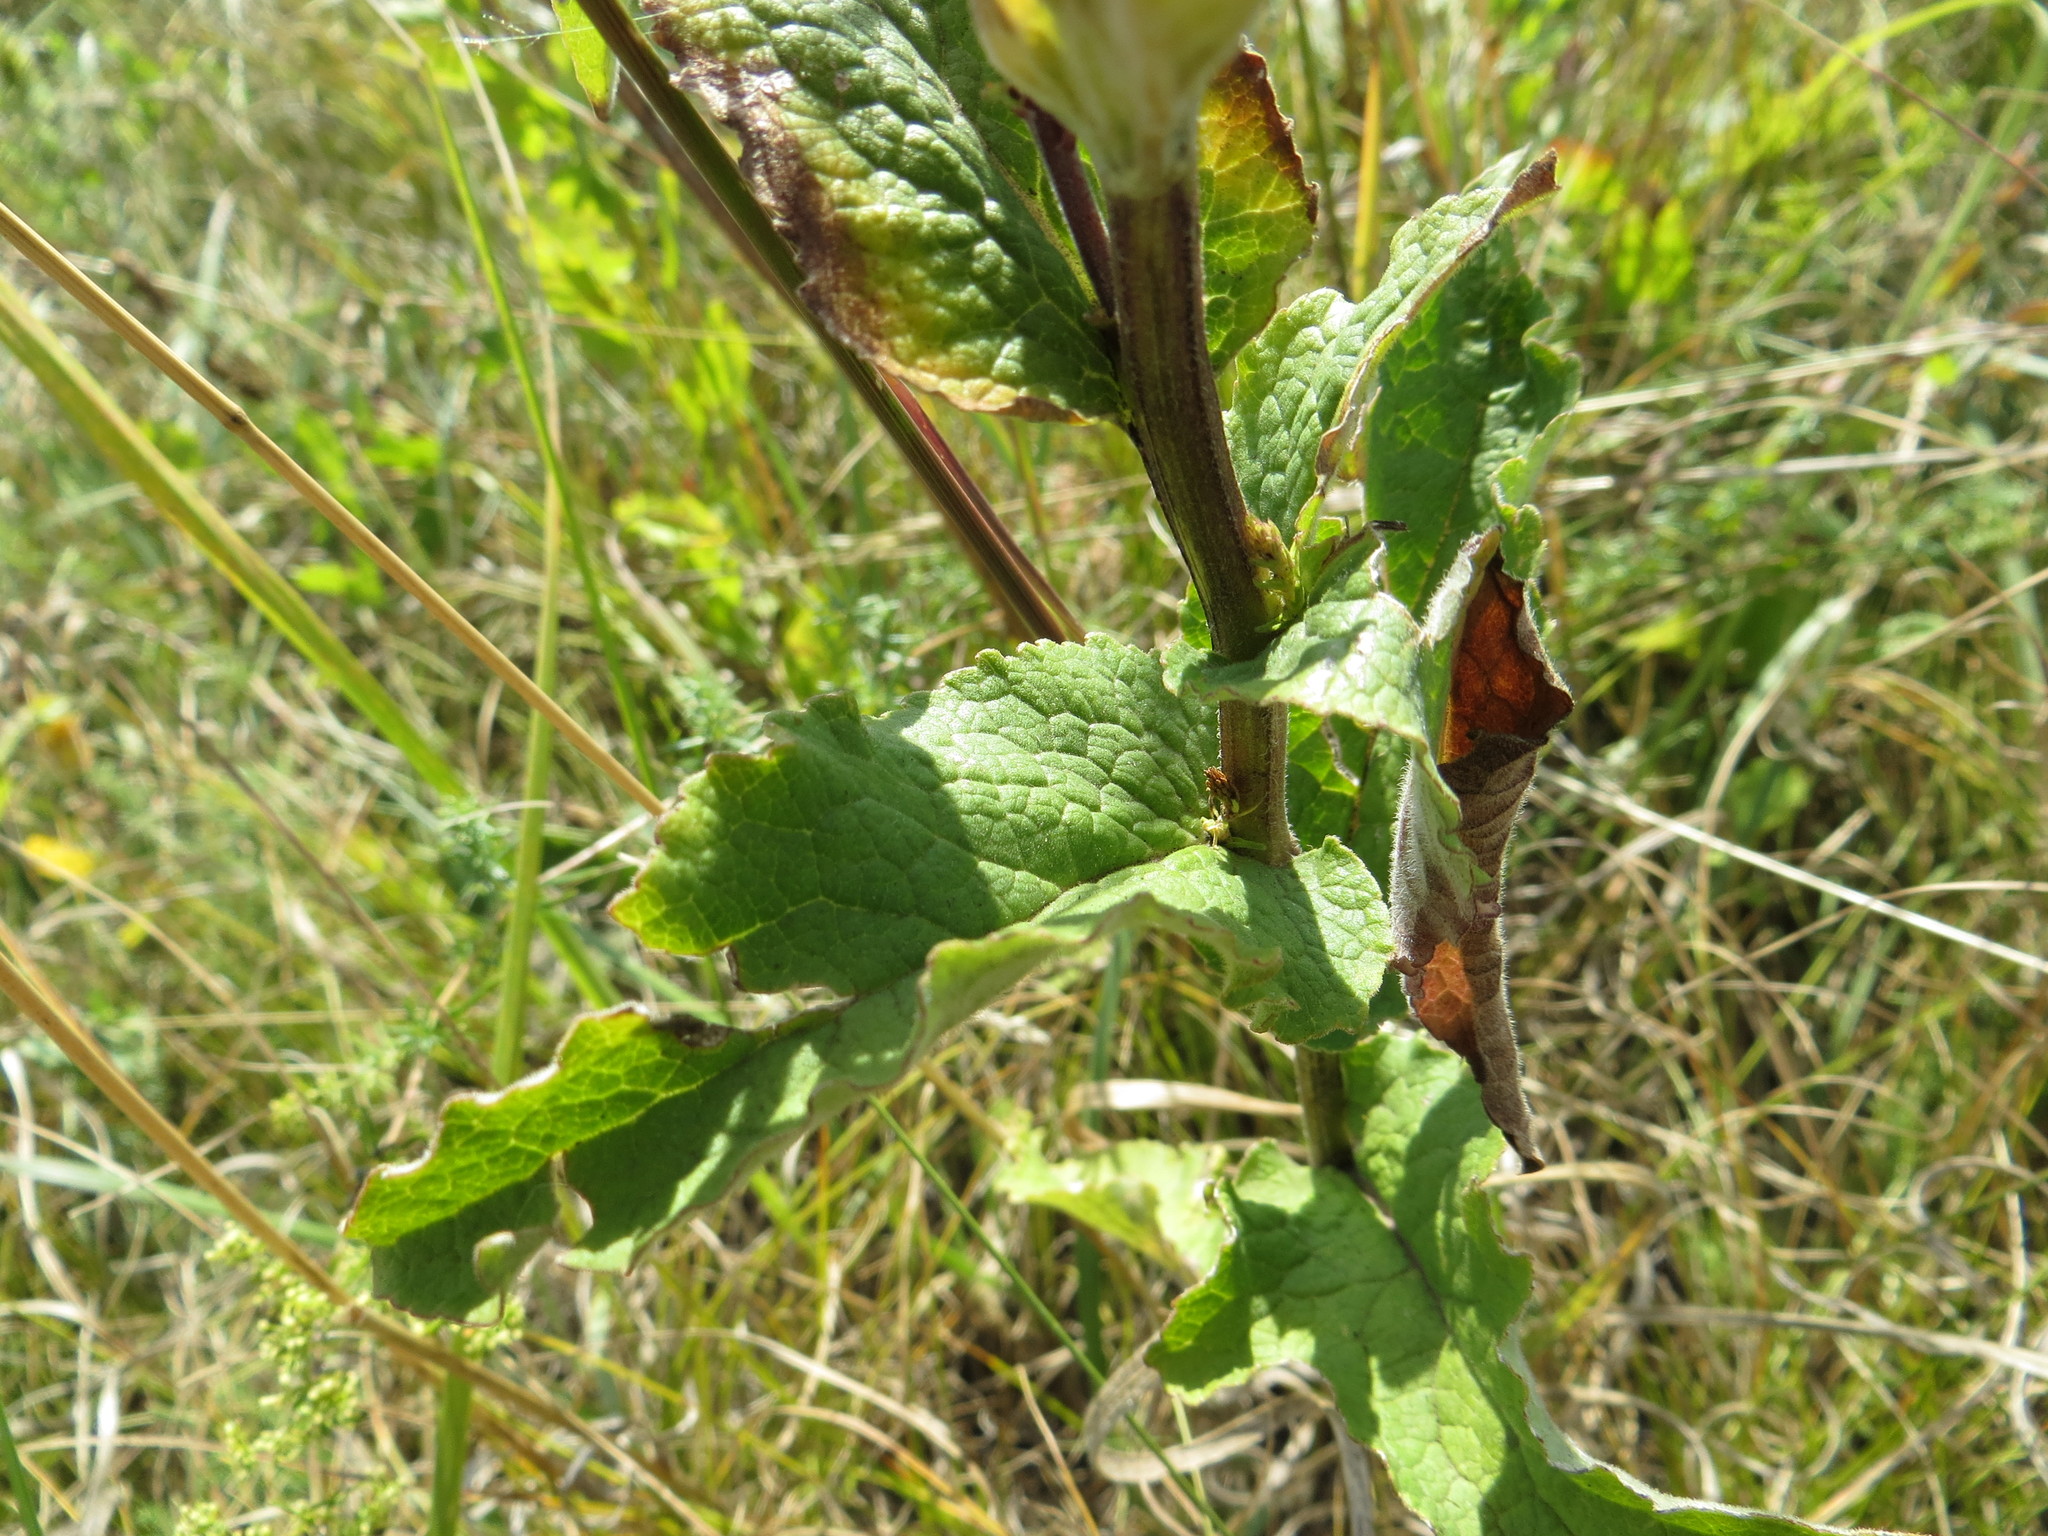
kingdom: Plantae
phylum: Tracheophyta
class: Magnoliopsida
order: Asterales
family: Campanulaceae
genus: Campanula
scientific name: Campanula bononiensis
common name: Pale bellflower
